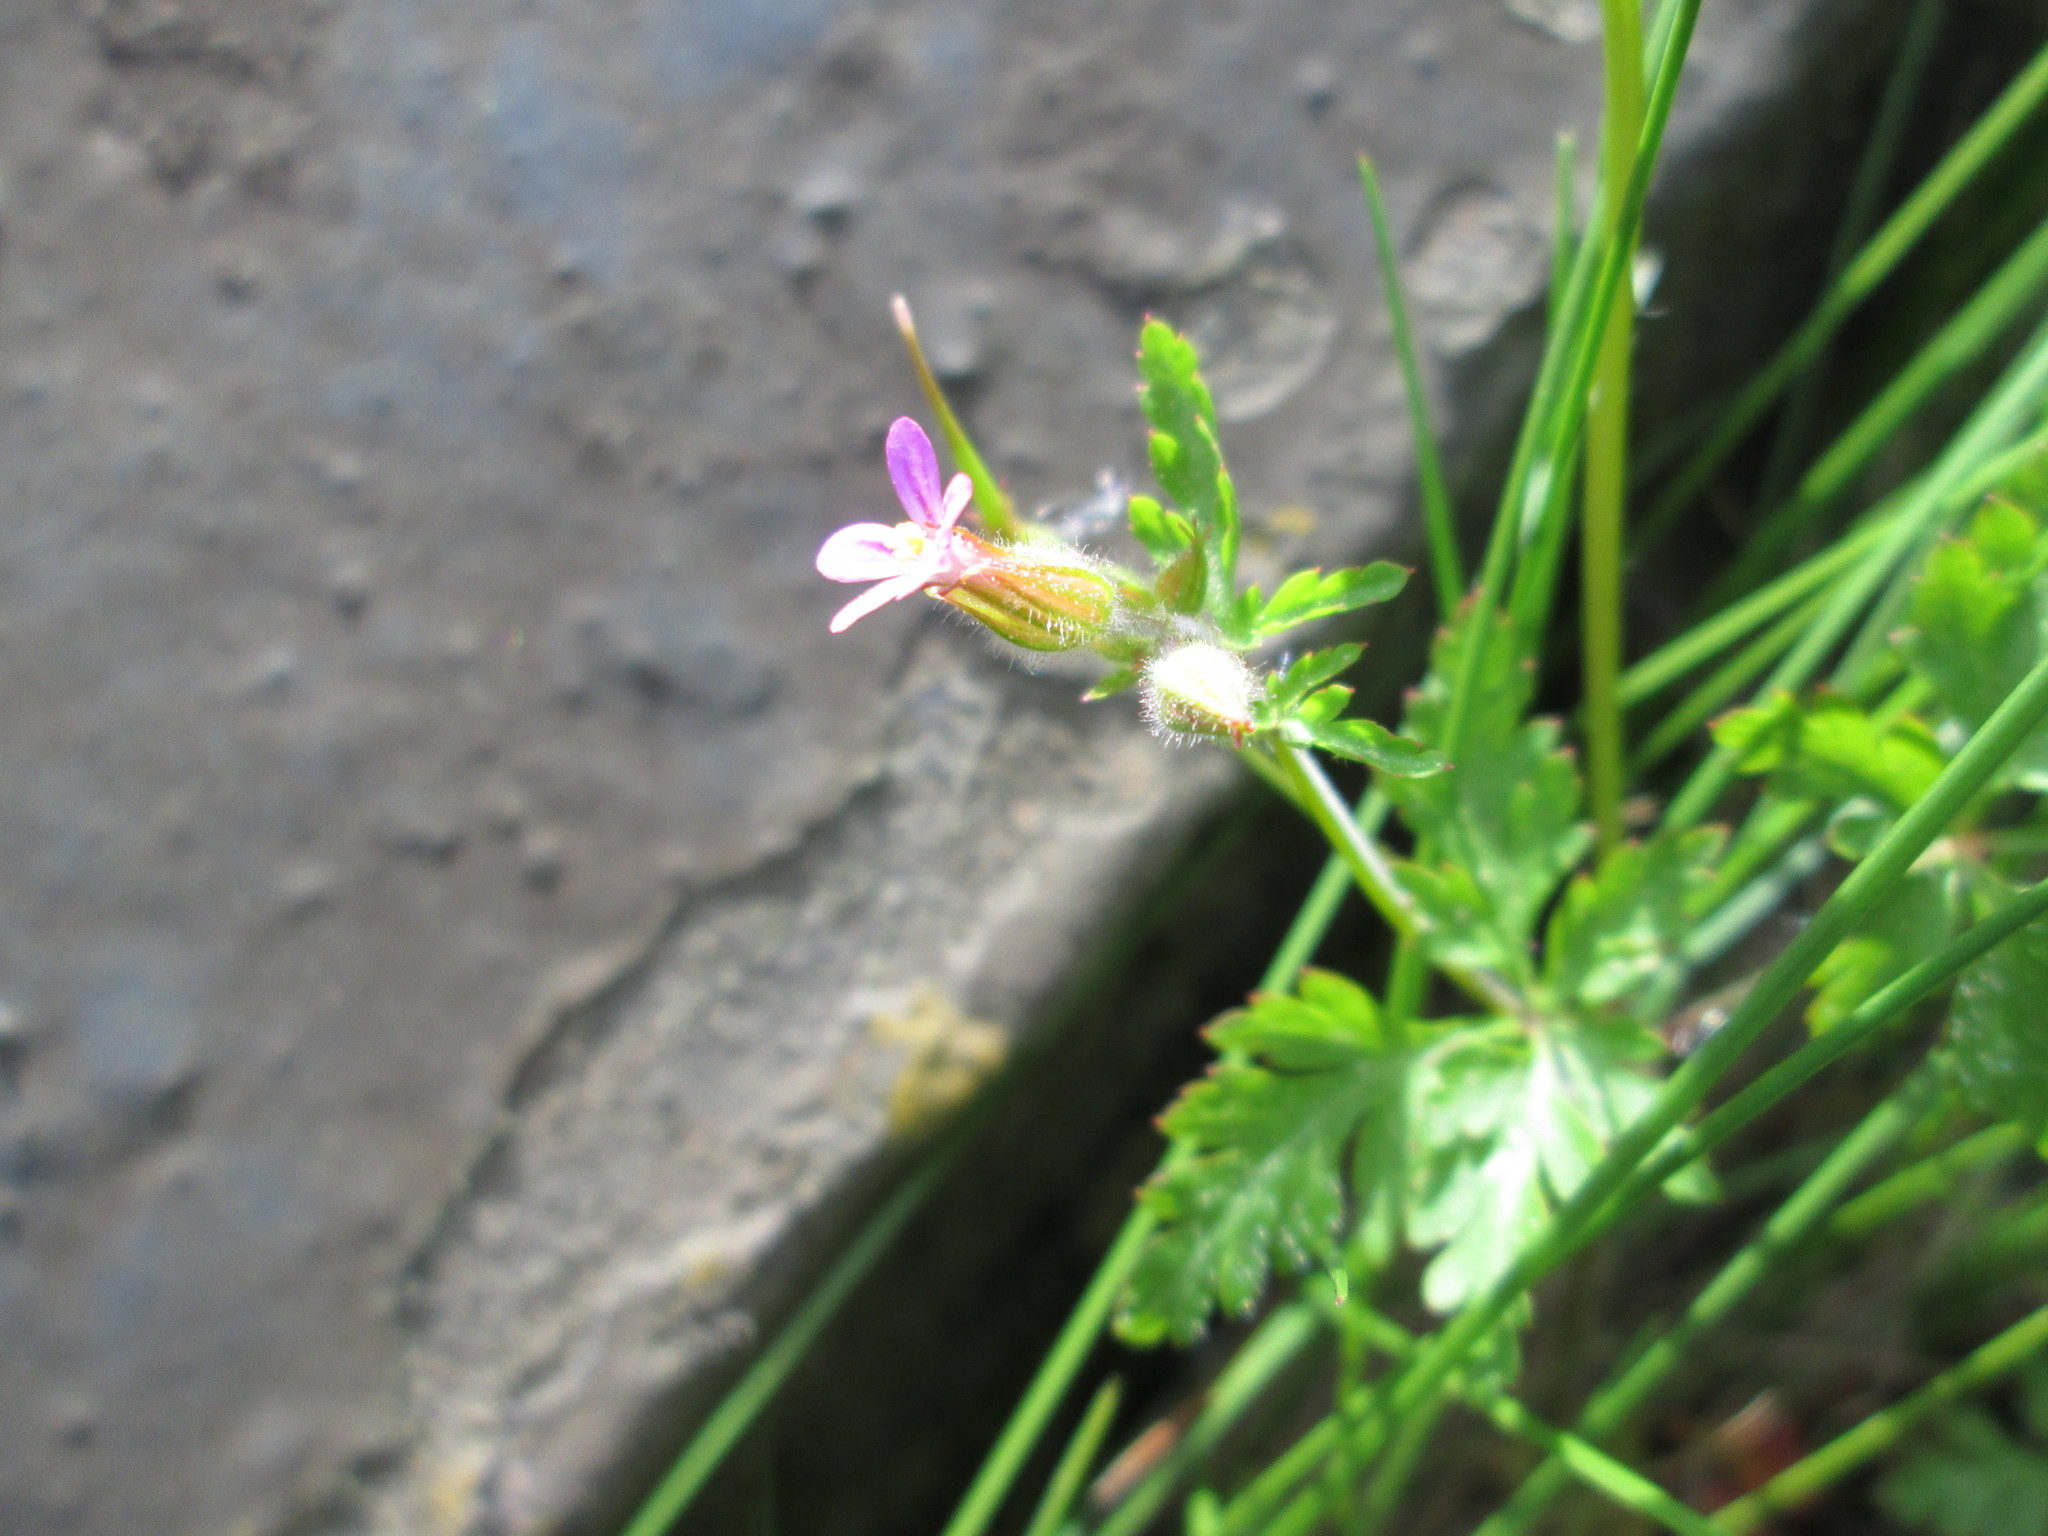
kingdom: Plantae
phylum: Tracheophyta
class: Magnoliopsida
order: Geraniales
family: Geraniaceae
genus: Geranium
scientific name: Geranium robertianum
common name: Herb-robert
